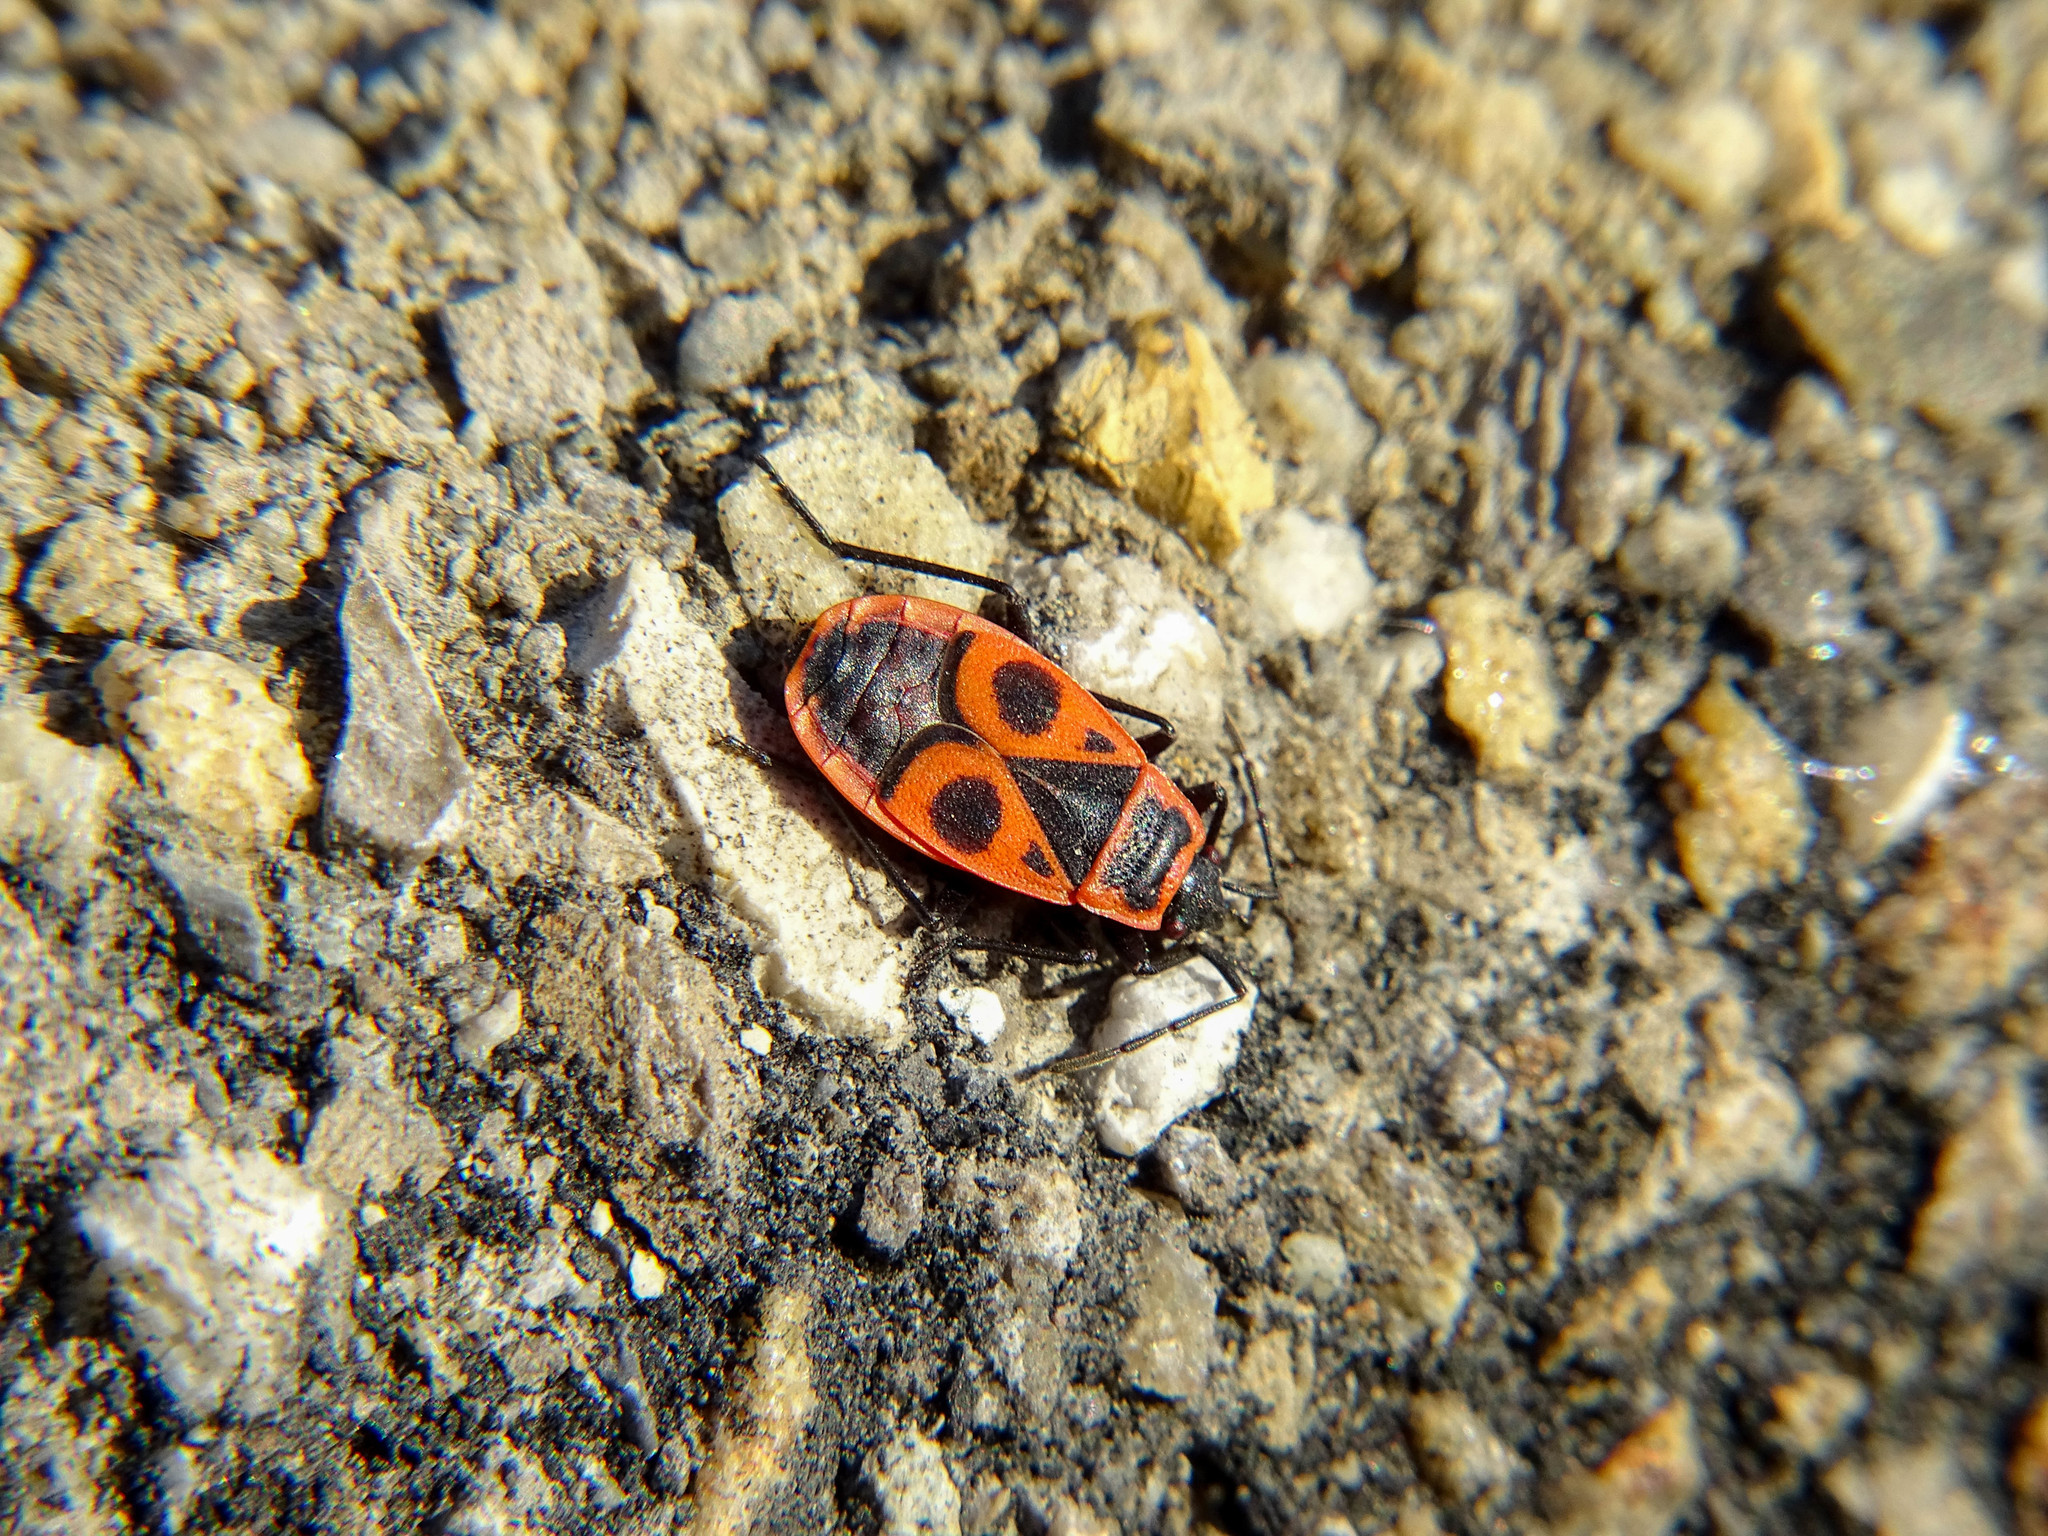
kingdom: Animalia
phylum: Arthropoda
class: Insecta
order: Hemiptera
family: Pyrrhocoridae
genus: Pyrrhocoris
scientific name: Pyrrhocoris apterus
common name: Firebug
